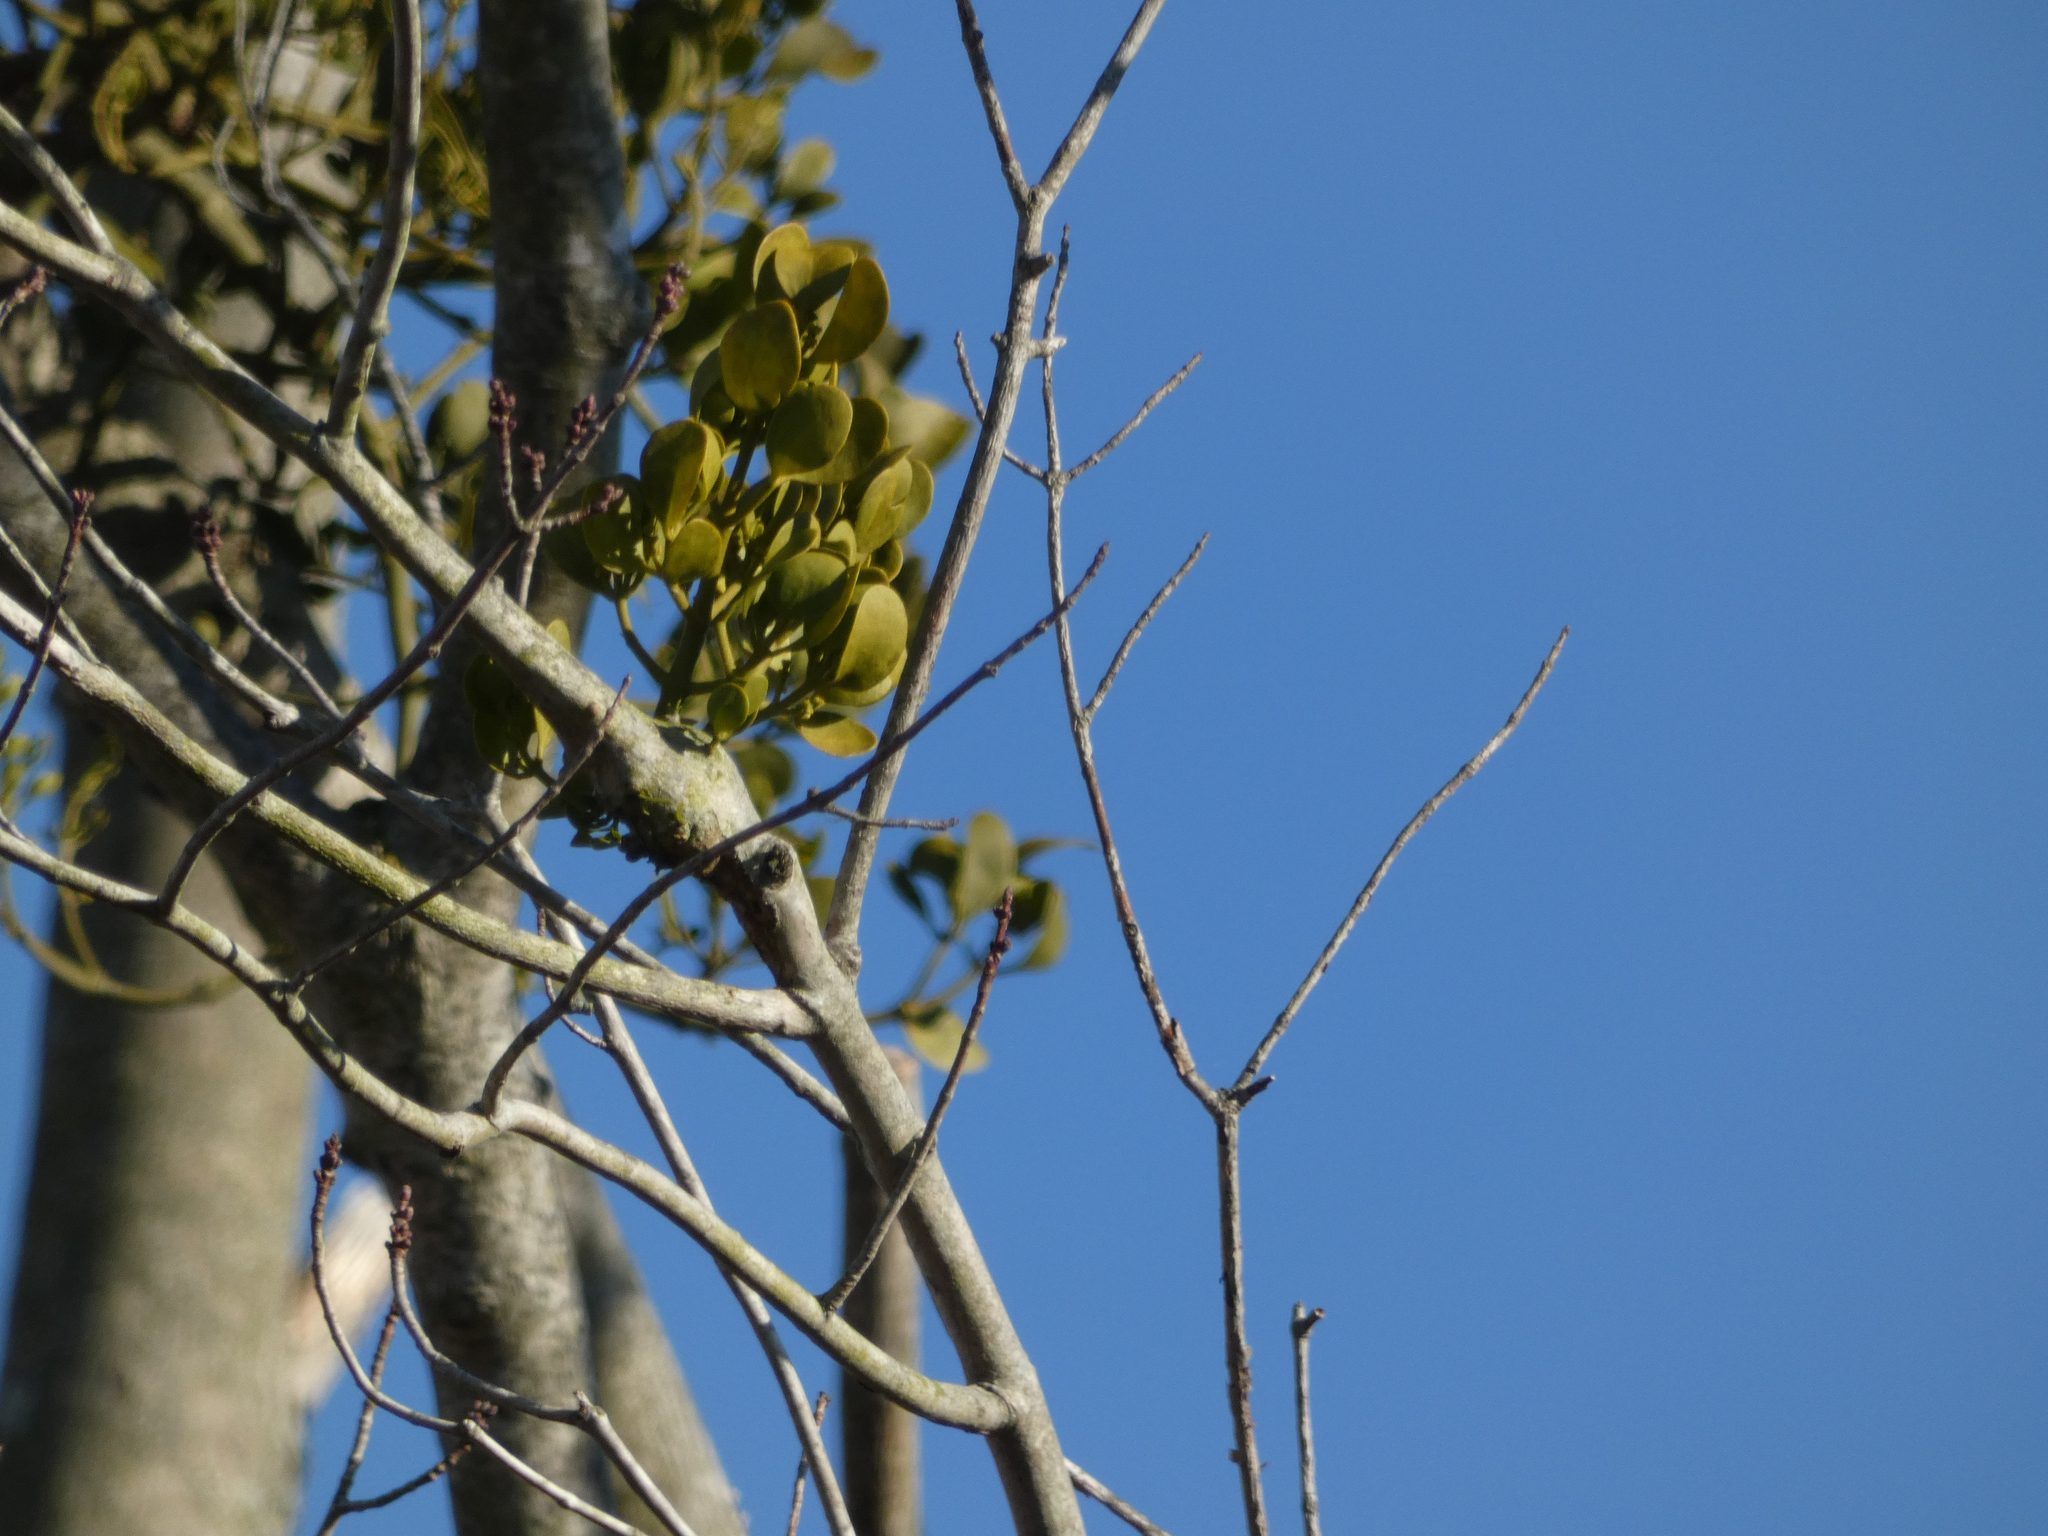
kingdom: Plantae
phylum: Tracheophyta
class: Magnoliopsida
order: Santalales
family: Viscaceae
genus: Phoradendron
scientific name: Phoradendron leucarpum
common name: Pacific mistletoe
